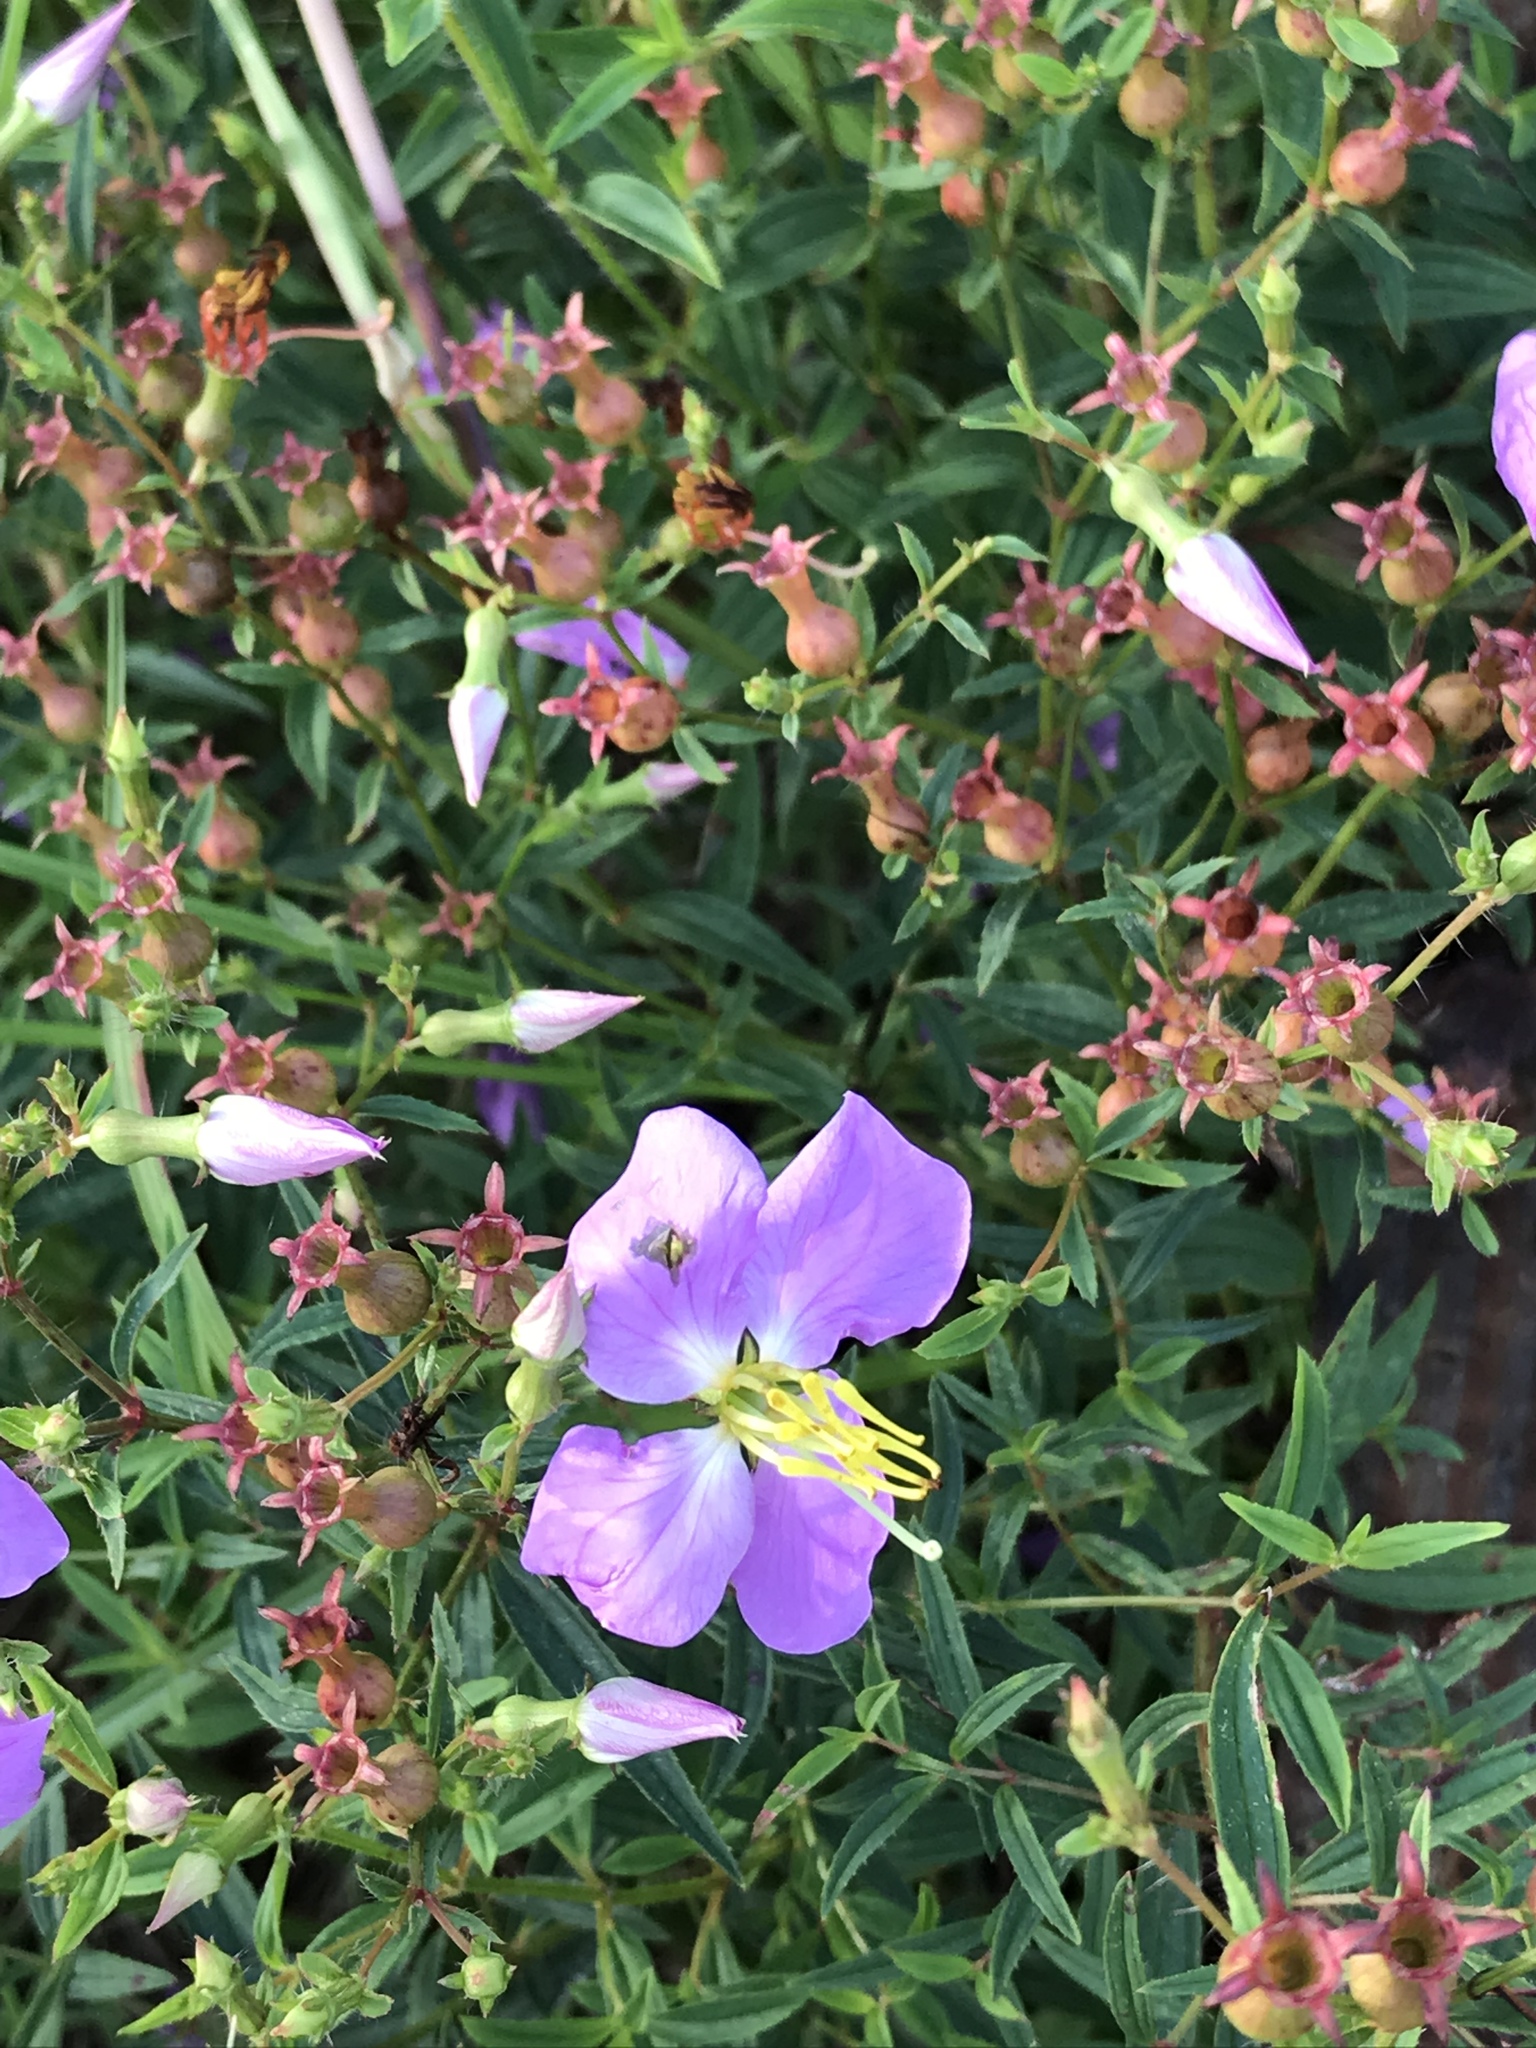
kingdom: Plantae
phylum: Tracheophyta
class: Magnoliopsida
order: Myrtales
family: Melastomataceae
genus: Rhexia
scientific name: Rhexia mariana
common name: Dull meadow-pitcher
